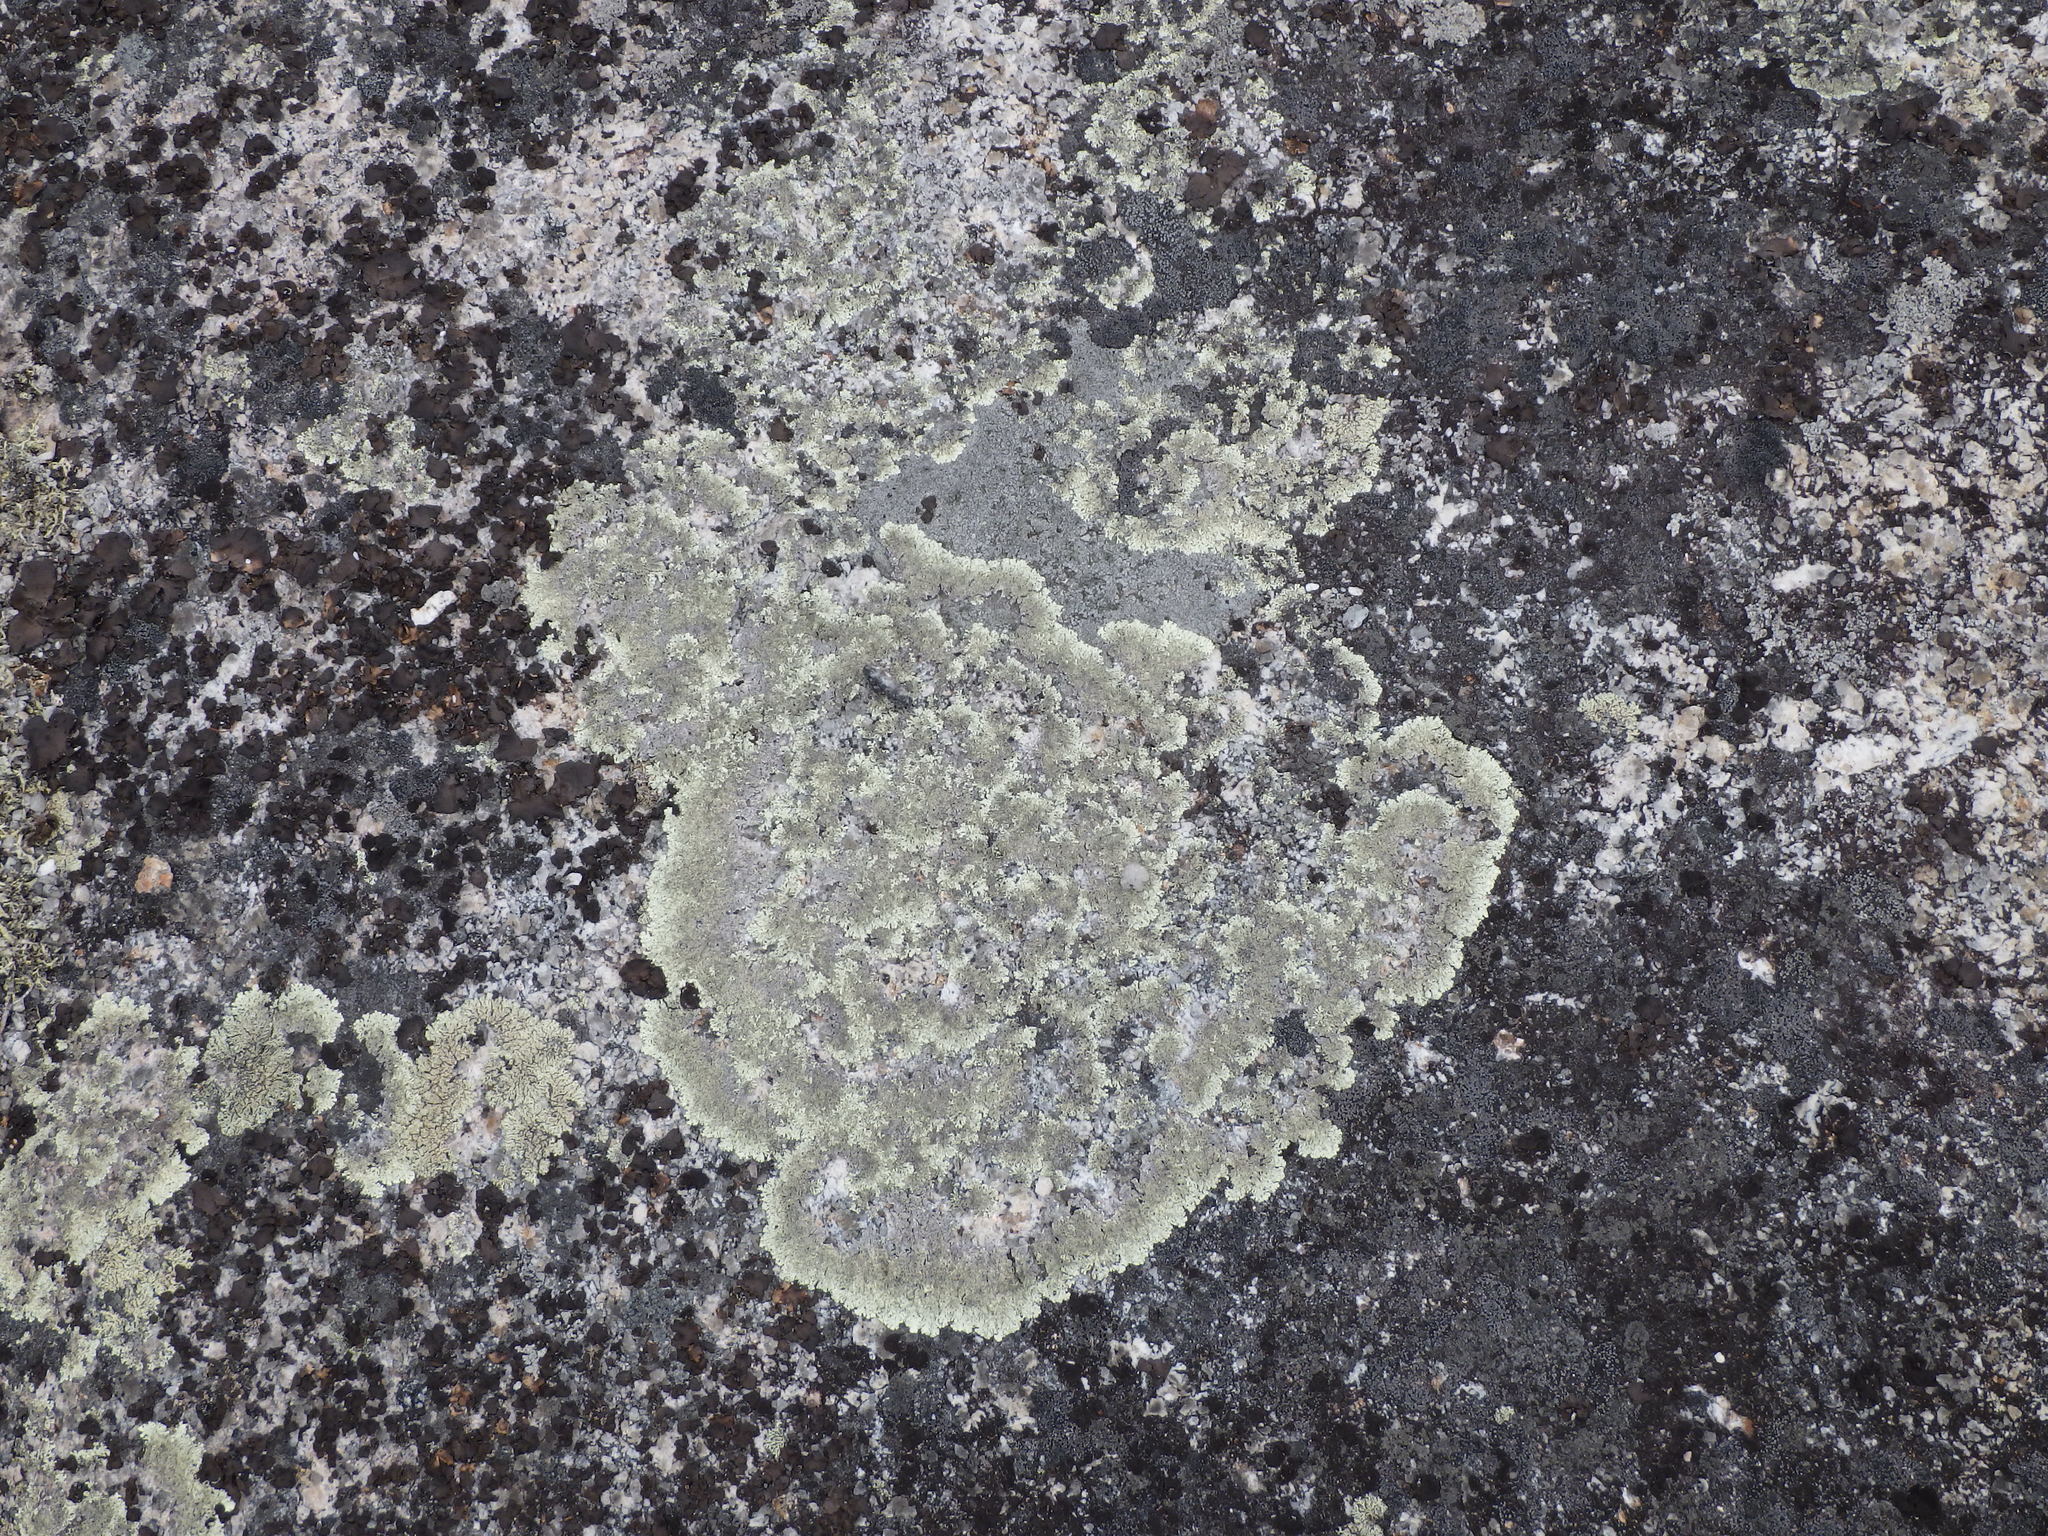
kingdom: Fungi
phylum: Ascomycota
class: Lecanoromycetes
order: Lecanorales
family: Parmeliaceae
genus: Arctoparmelia
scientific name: Arctoparmelia centrifuga
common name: Concentric ring lichen
